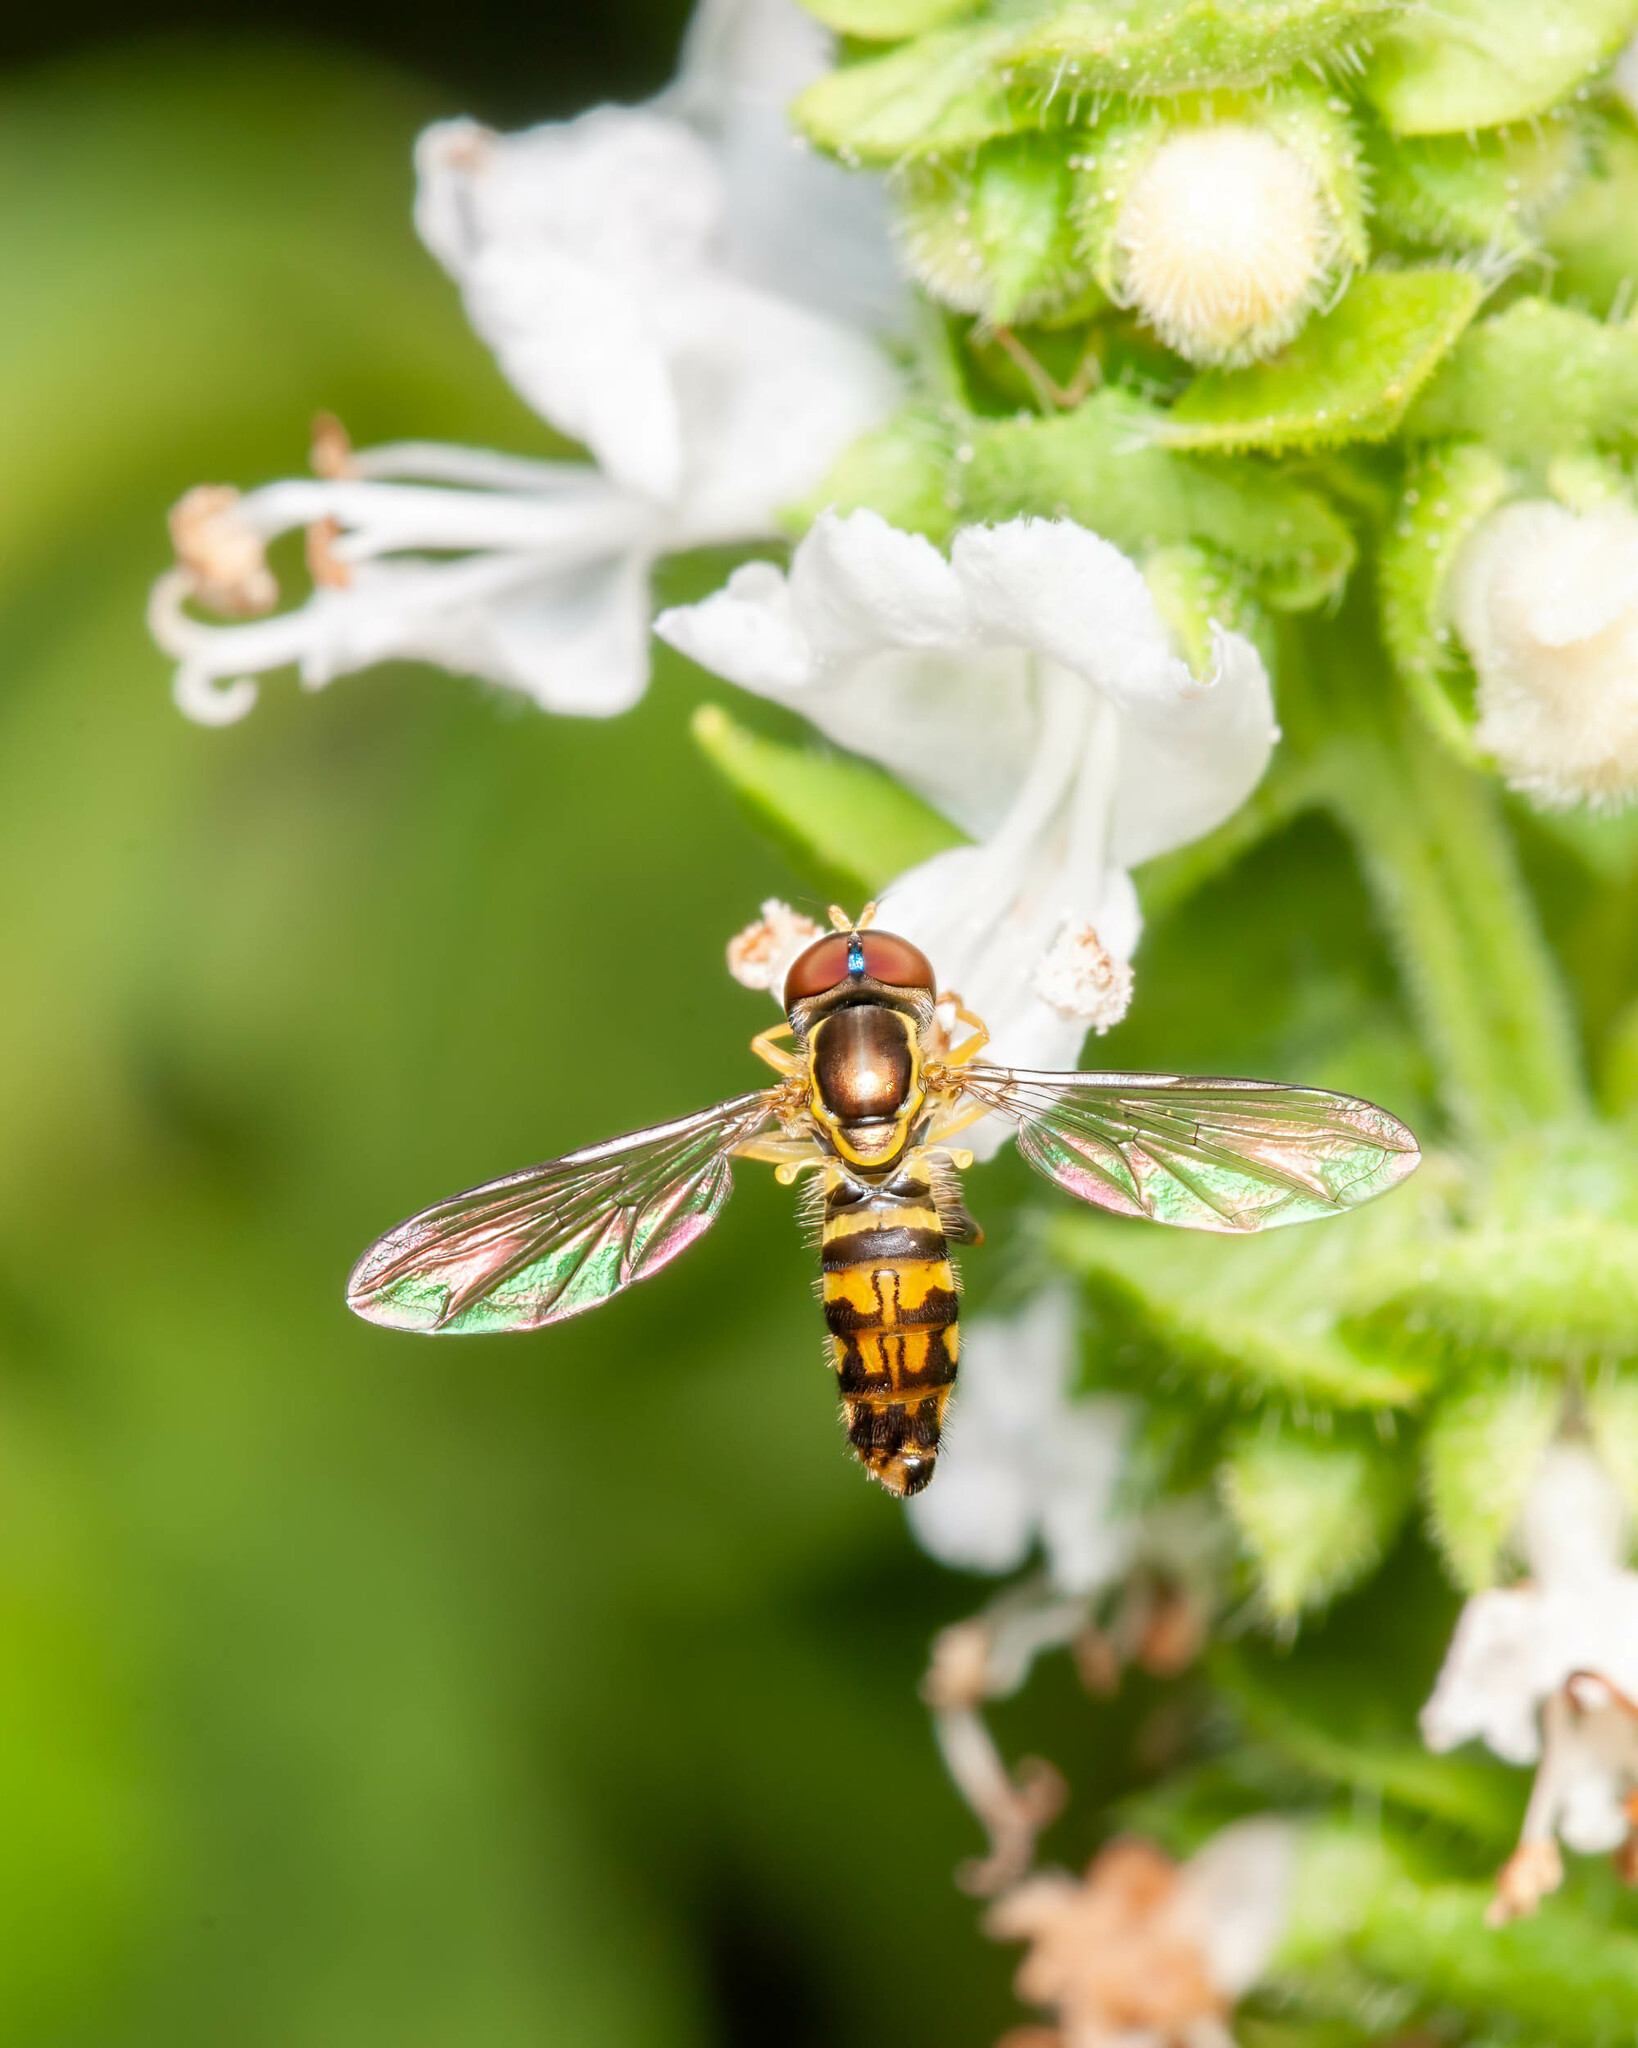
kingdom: Animalia
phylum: Arthropoda
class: Insecta
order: Diptera
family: Syrphidae
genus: Toxomerus
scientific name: Toxomerus geminatus
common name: Eastern calligrapher
